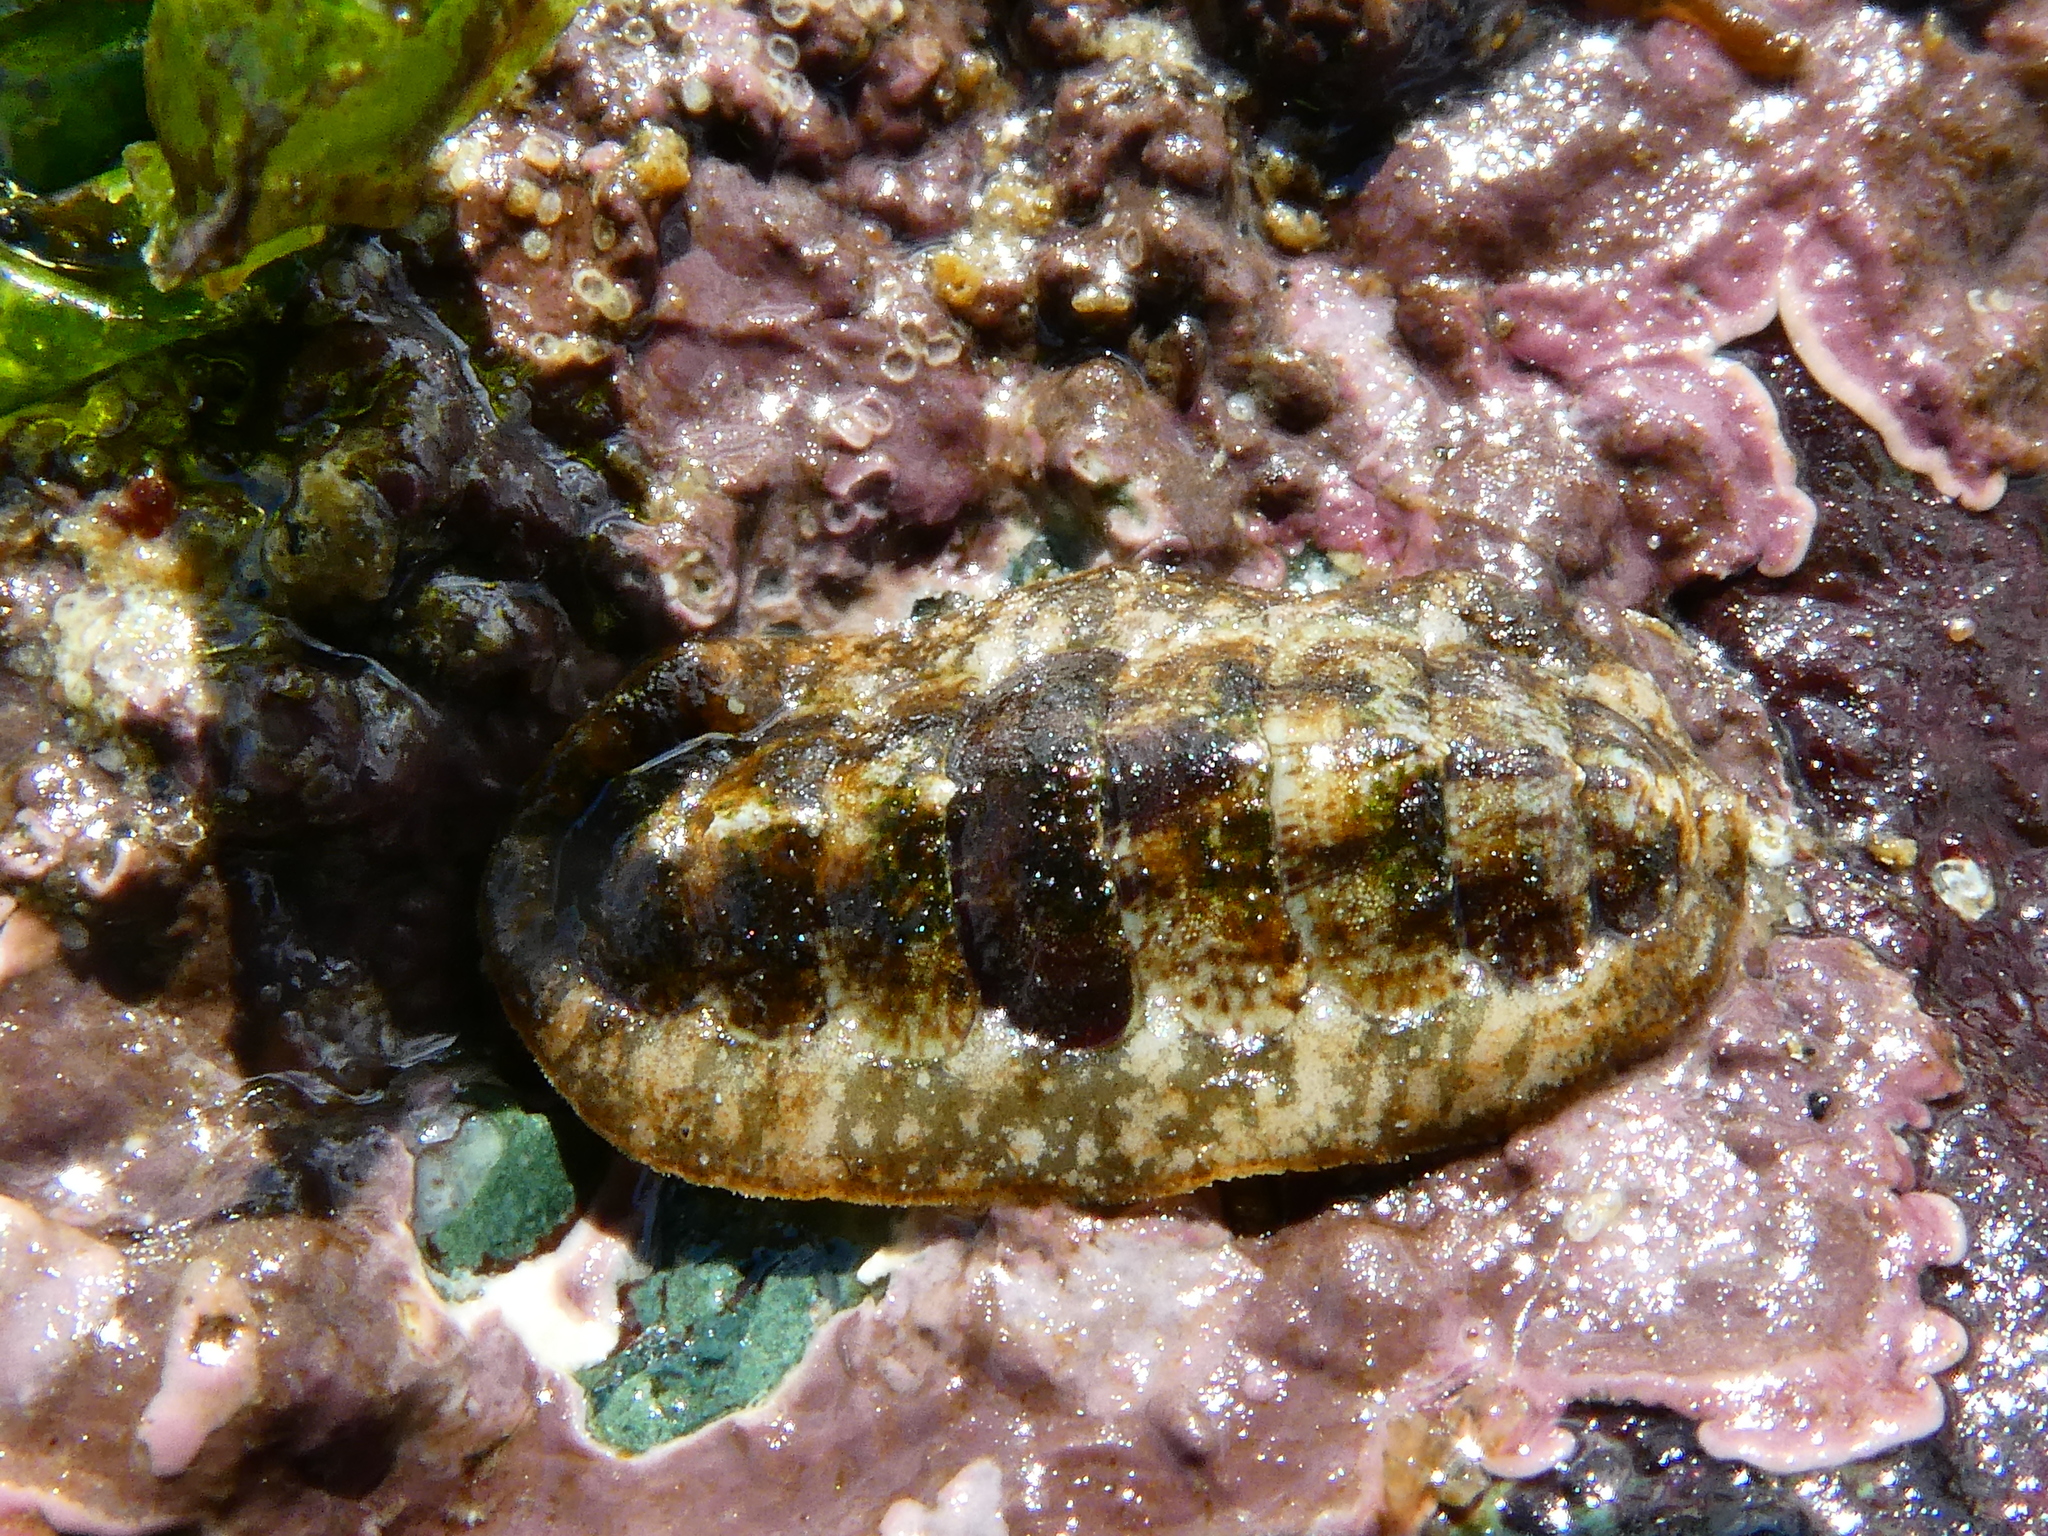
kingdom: Animalia
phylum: Mollusca
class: Polyplacophora
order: Chitonida
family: Tonicellidae
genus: Cyanoplax
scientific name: Cyanoplax dentiens
